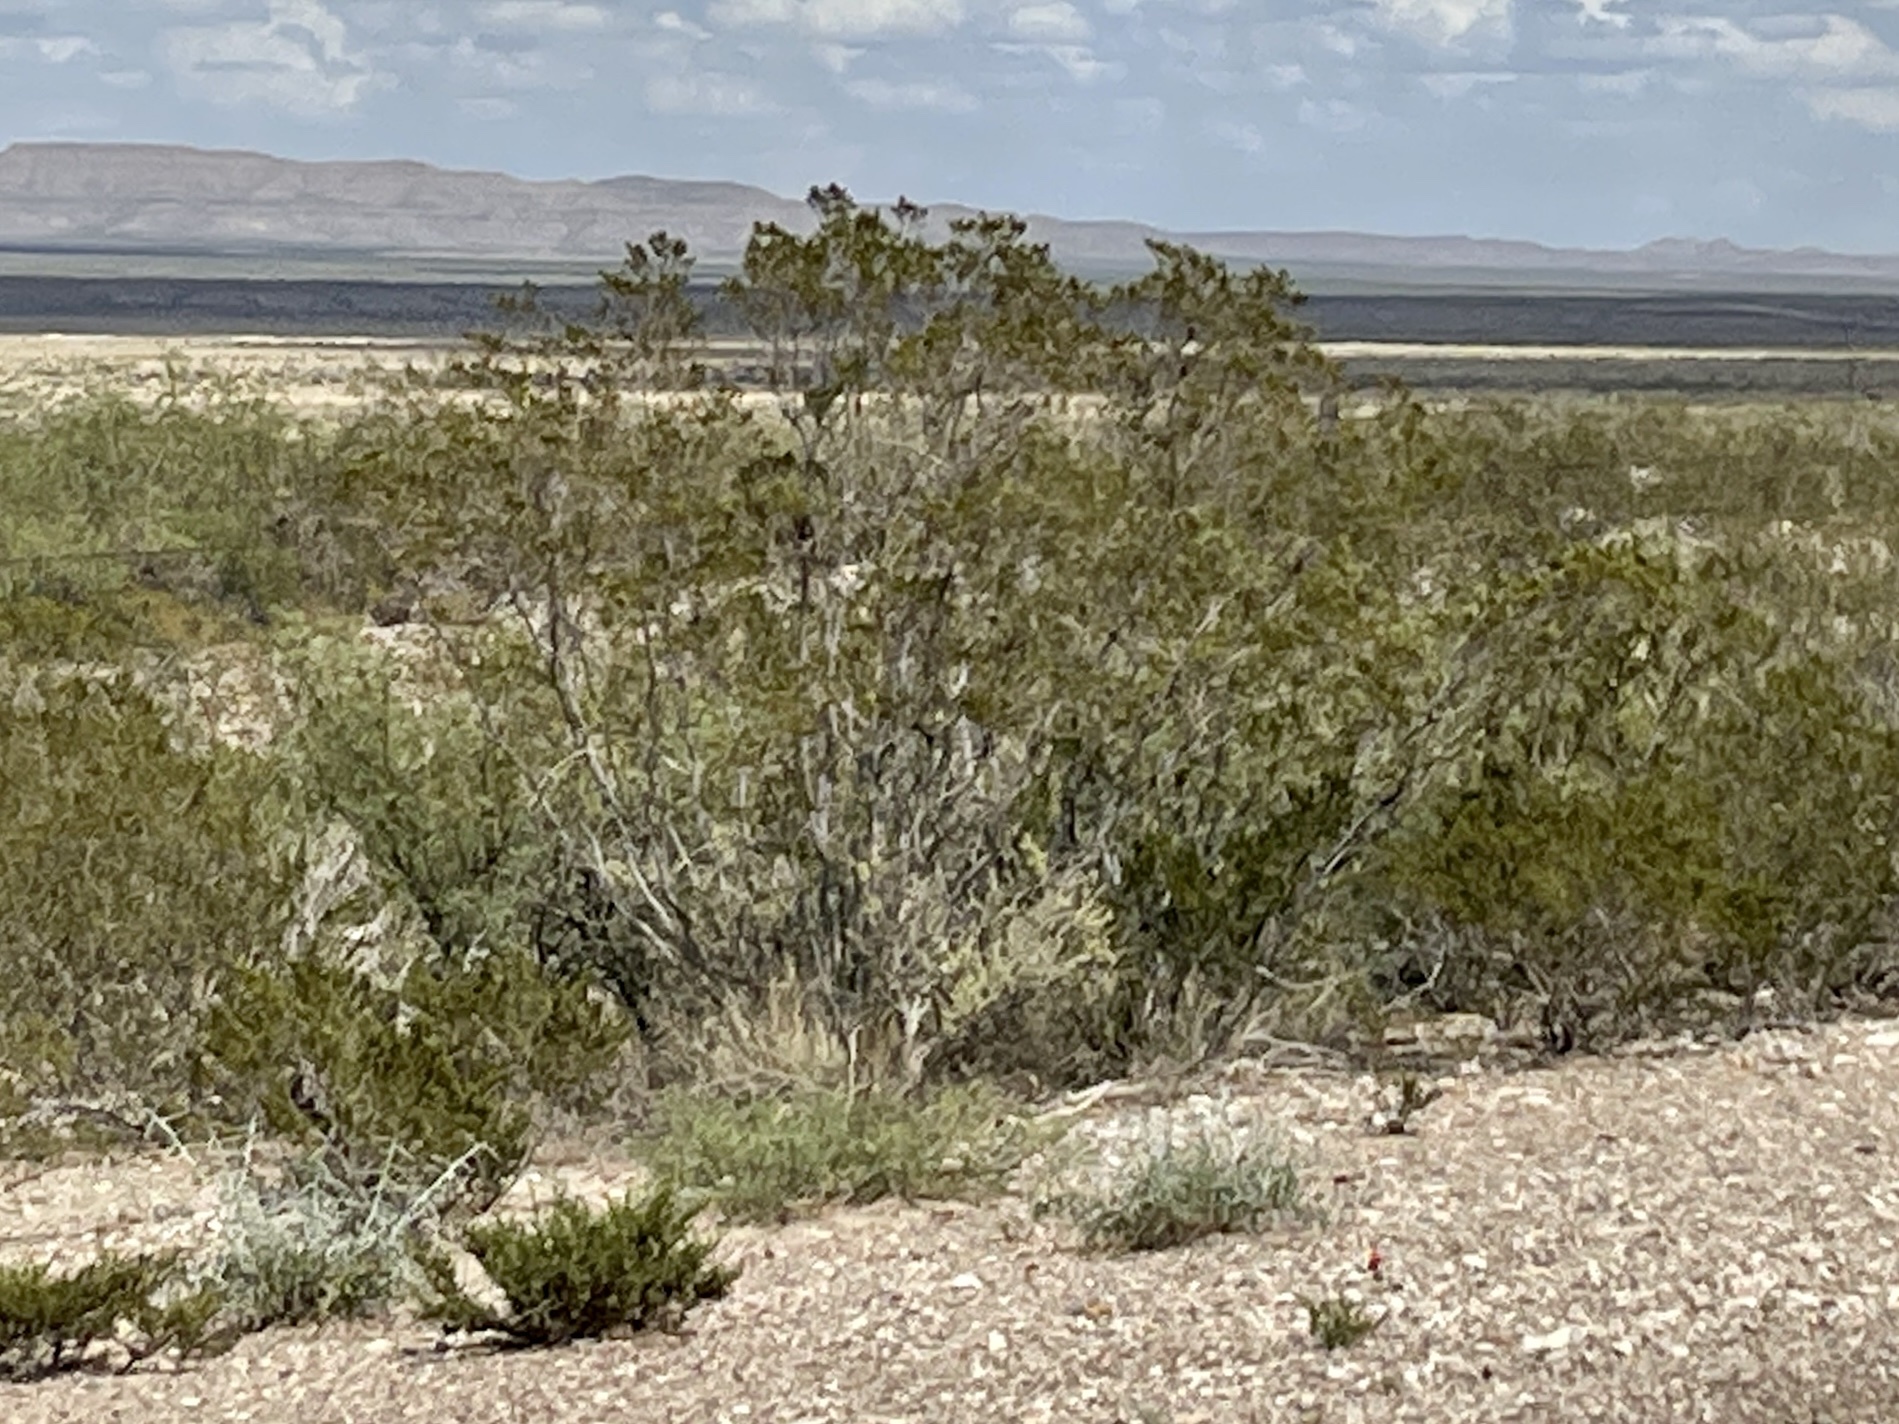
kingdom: Plantae
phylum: Tracheophyta
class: Magnoliopsida
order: Zygophyllales
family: Zygophyllaceae
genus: Larrea
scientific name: Larrea tridentata
